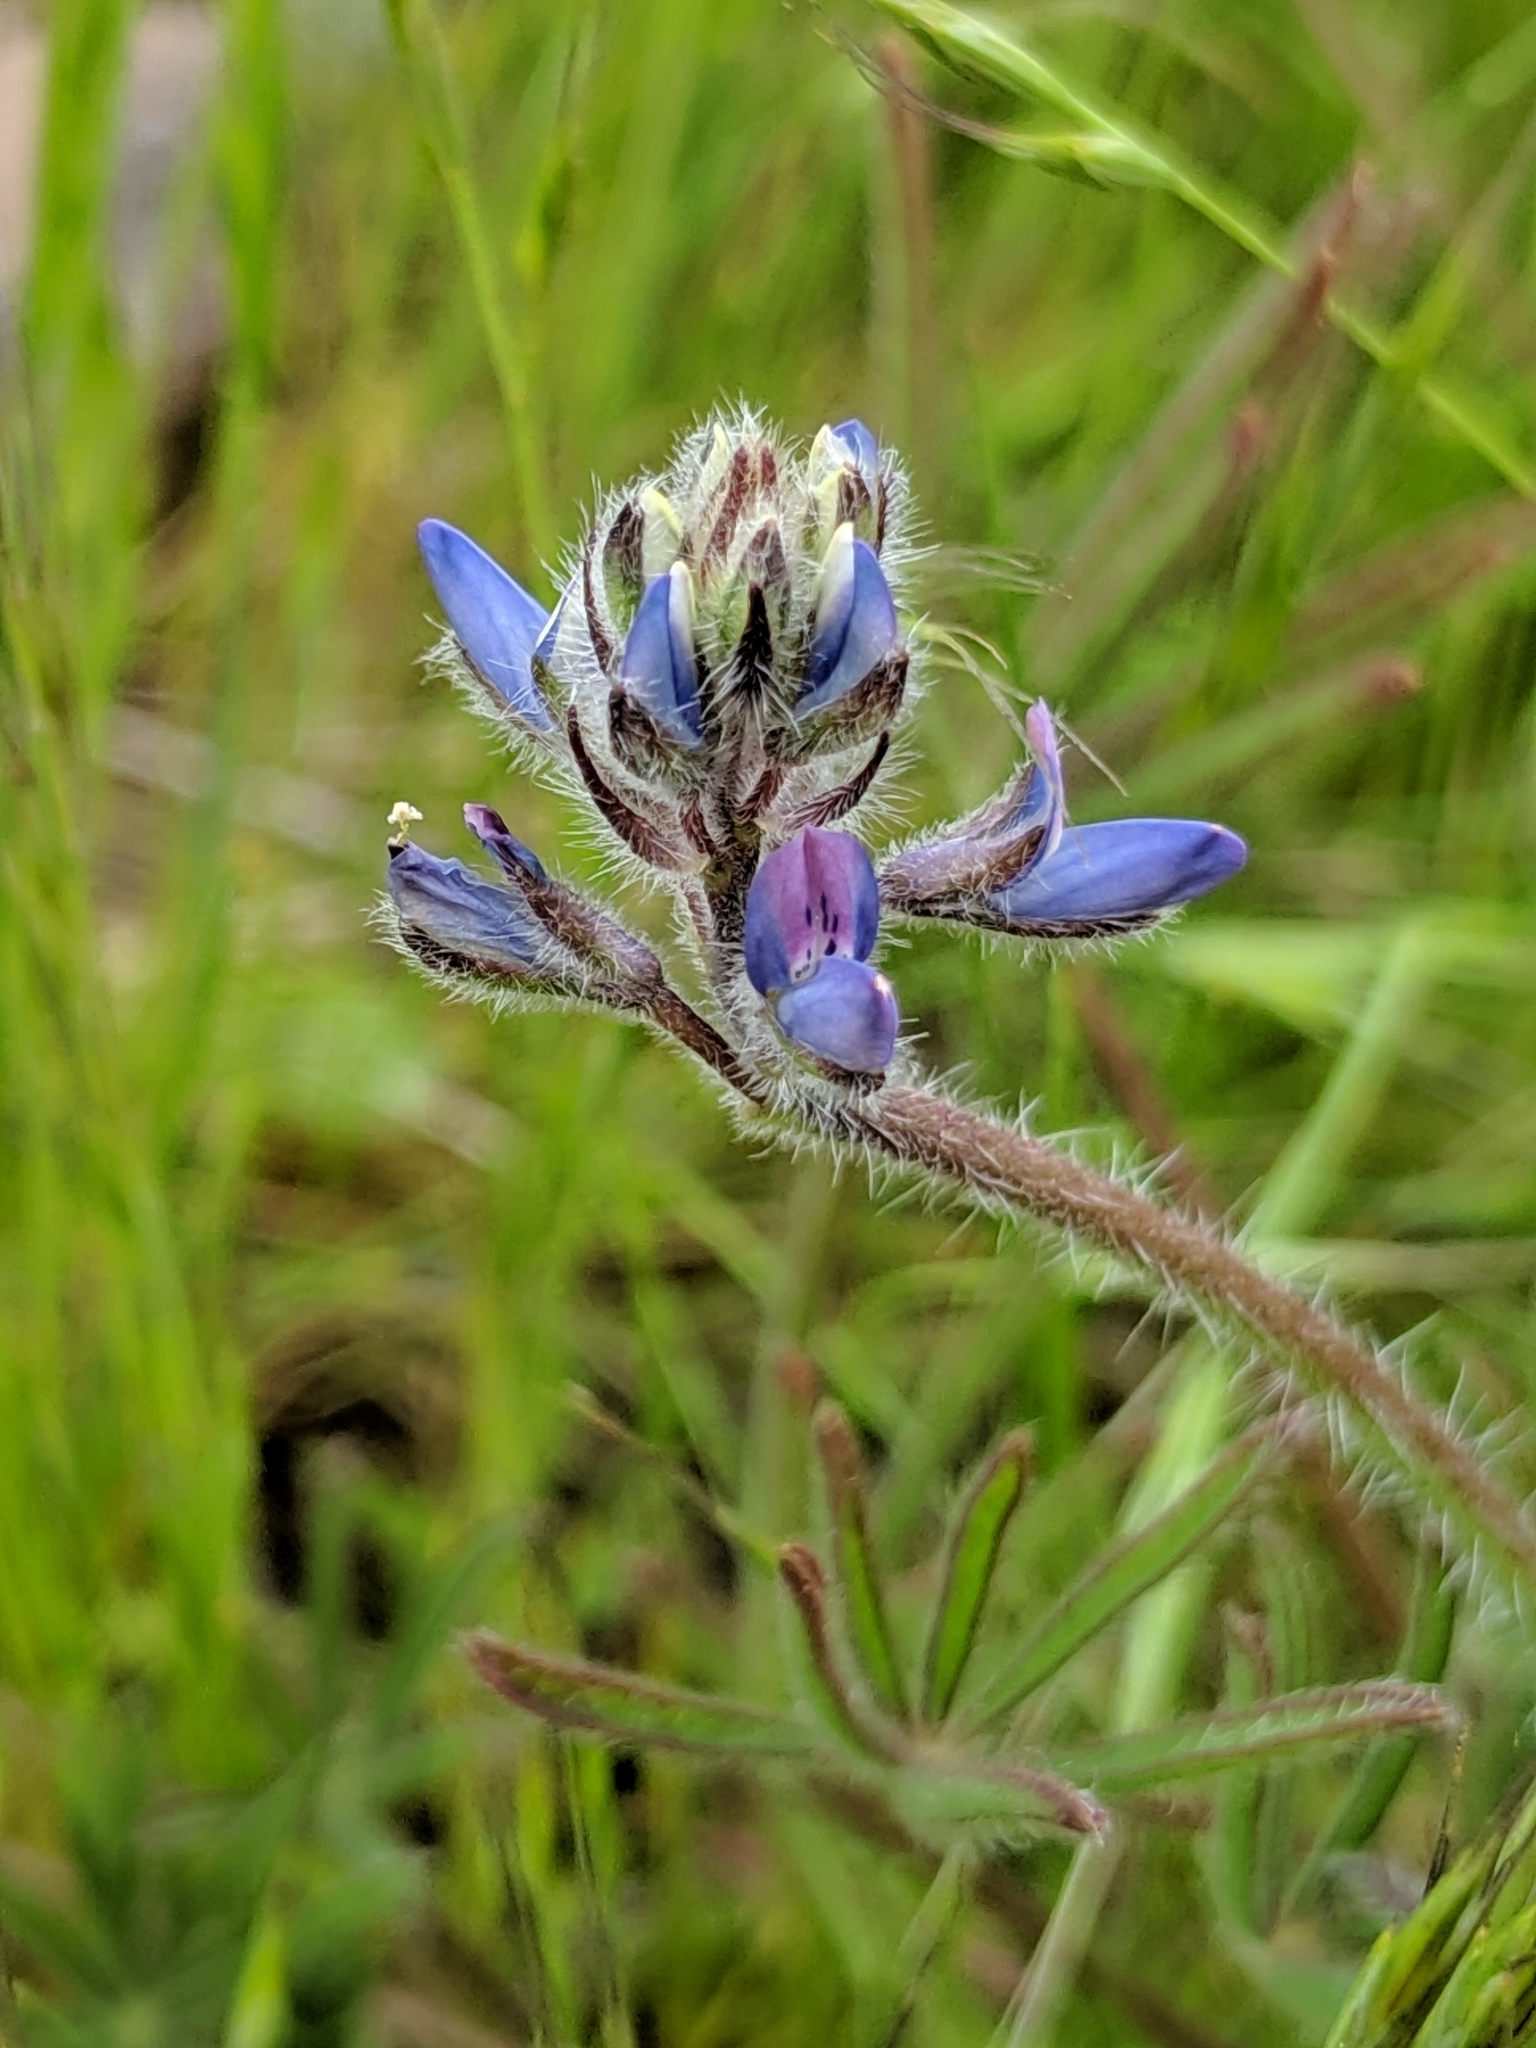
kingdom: Plantae
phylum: Tracheophyta
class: Magnoliopsida
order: Fabales
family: Fabaceae
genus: Lupinus
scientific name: Lupinus bicolor
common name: Miniature lupine
